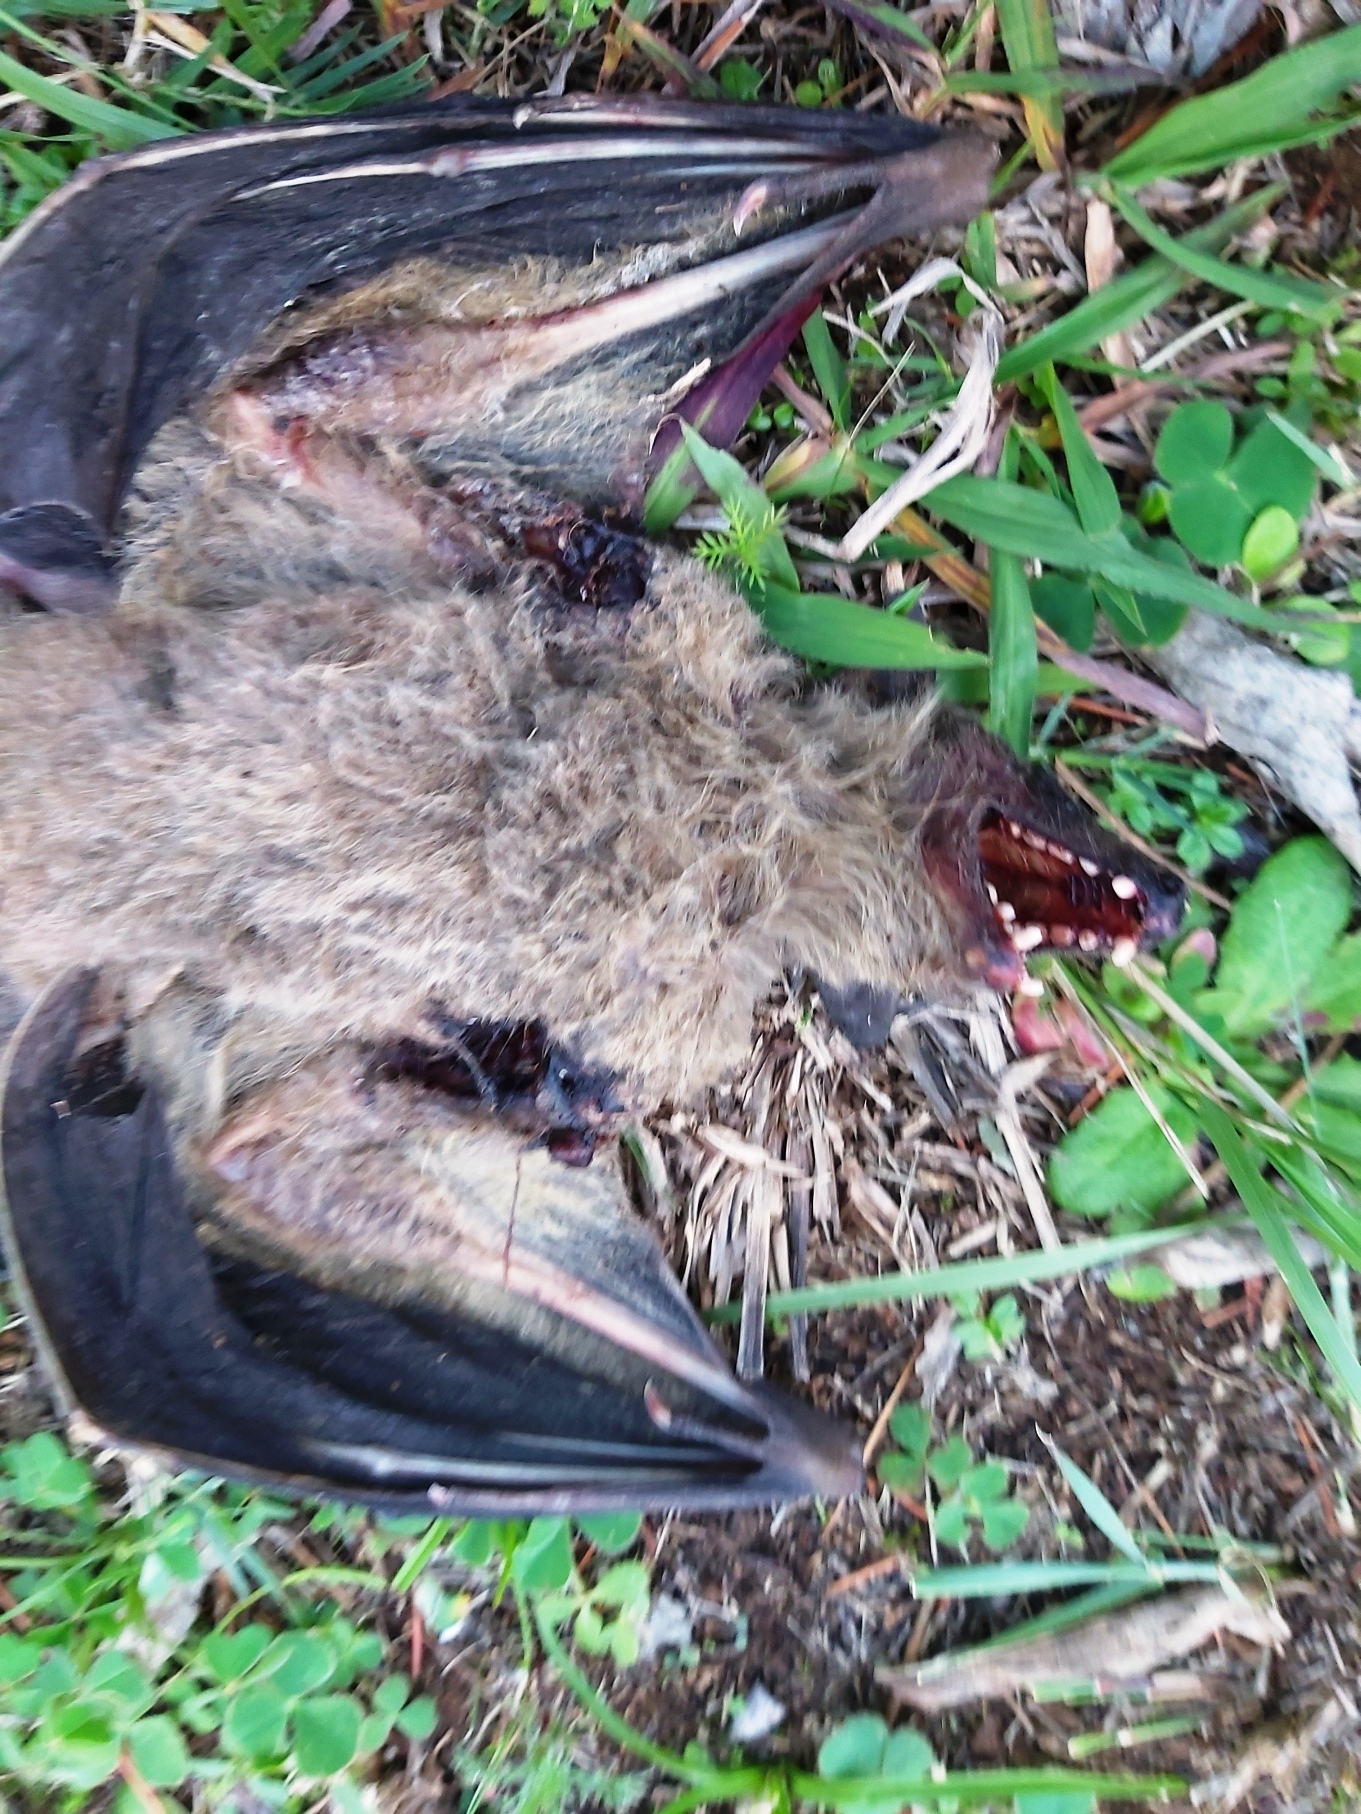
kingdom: Animalia
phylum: Chordata
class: Mammalia
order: Chiroptera
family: Pteropodidae
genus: Rousettus
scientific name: Rousettus aegyptiacus
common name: Egyptian rousette
